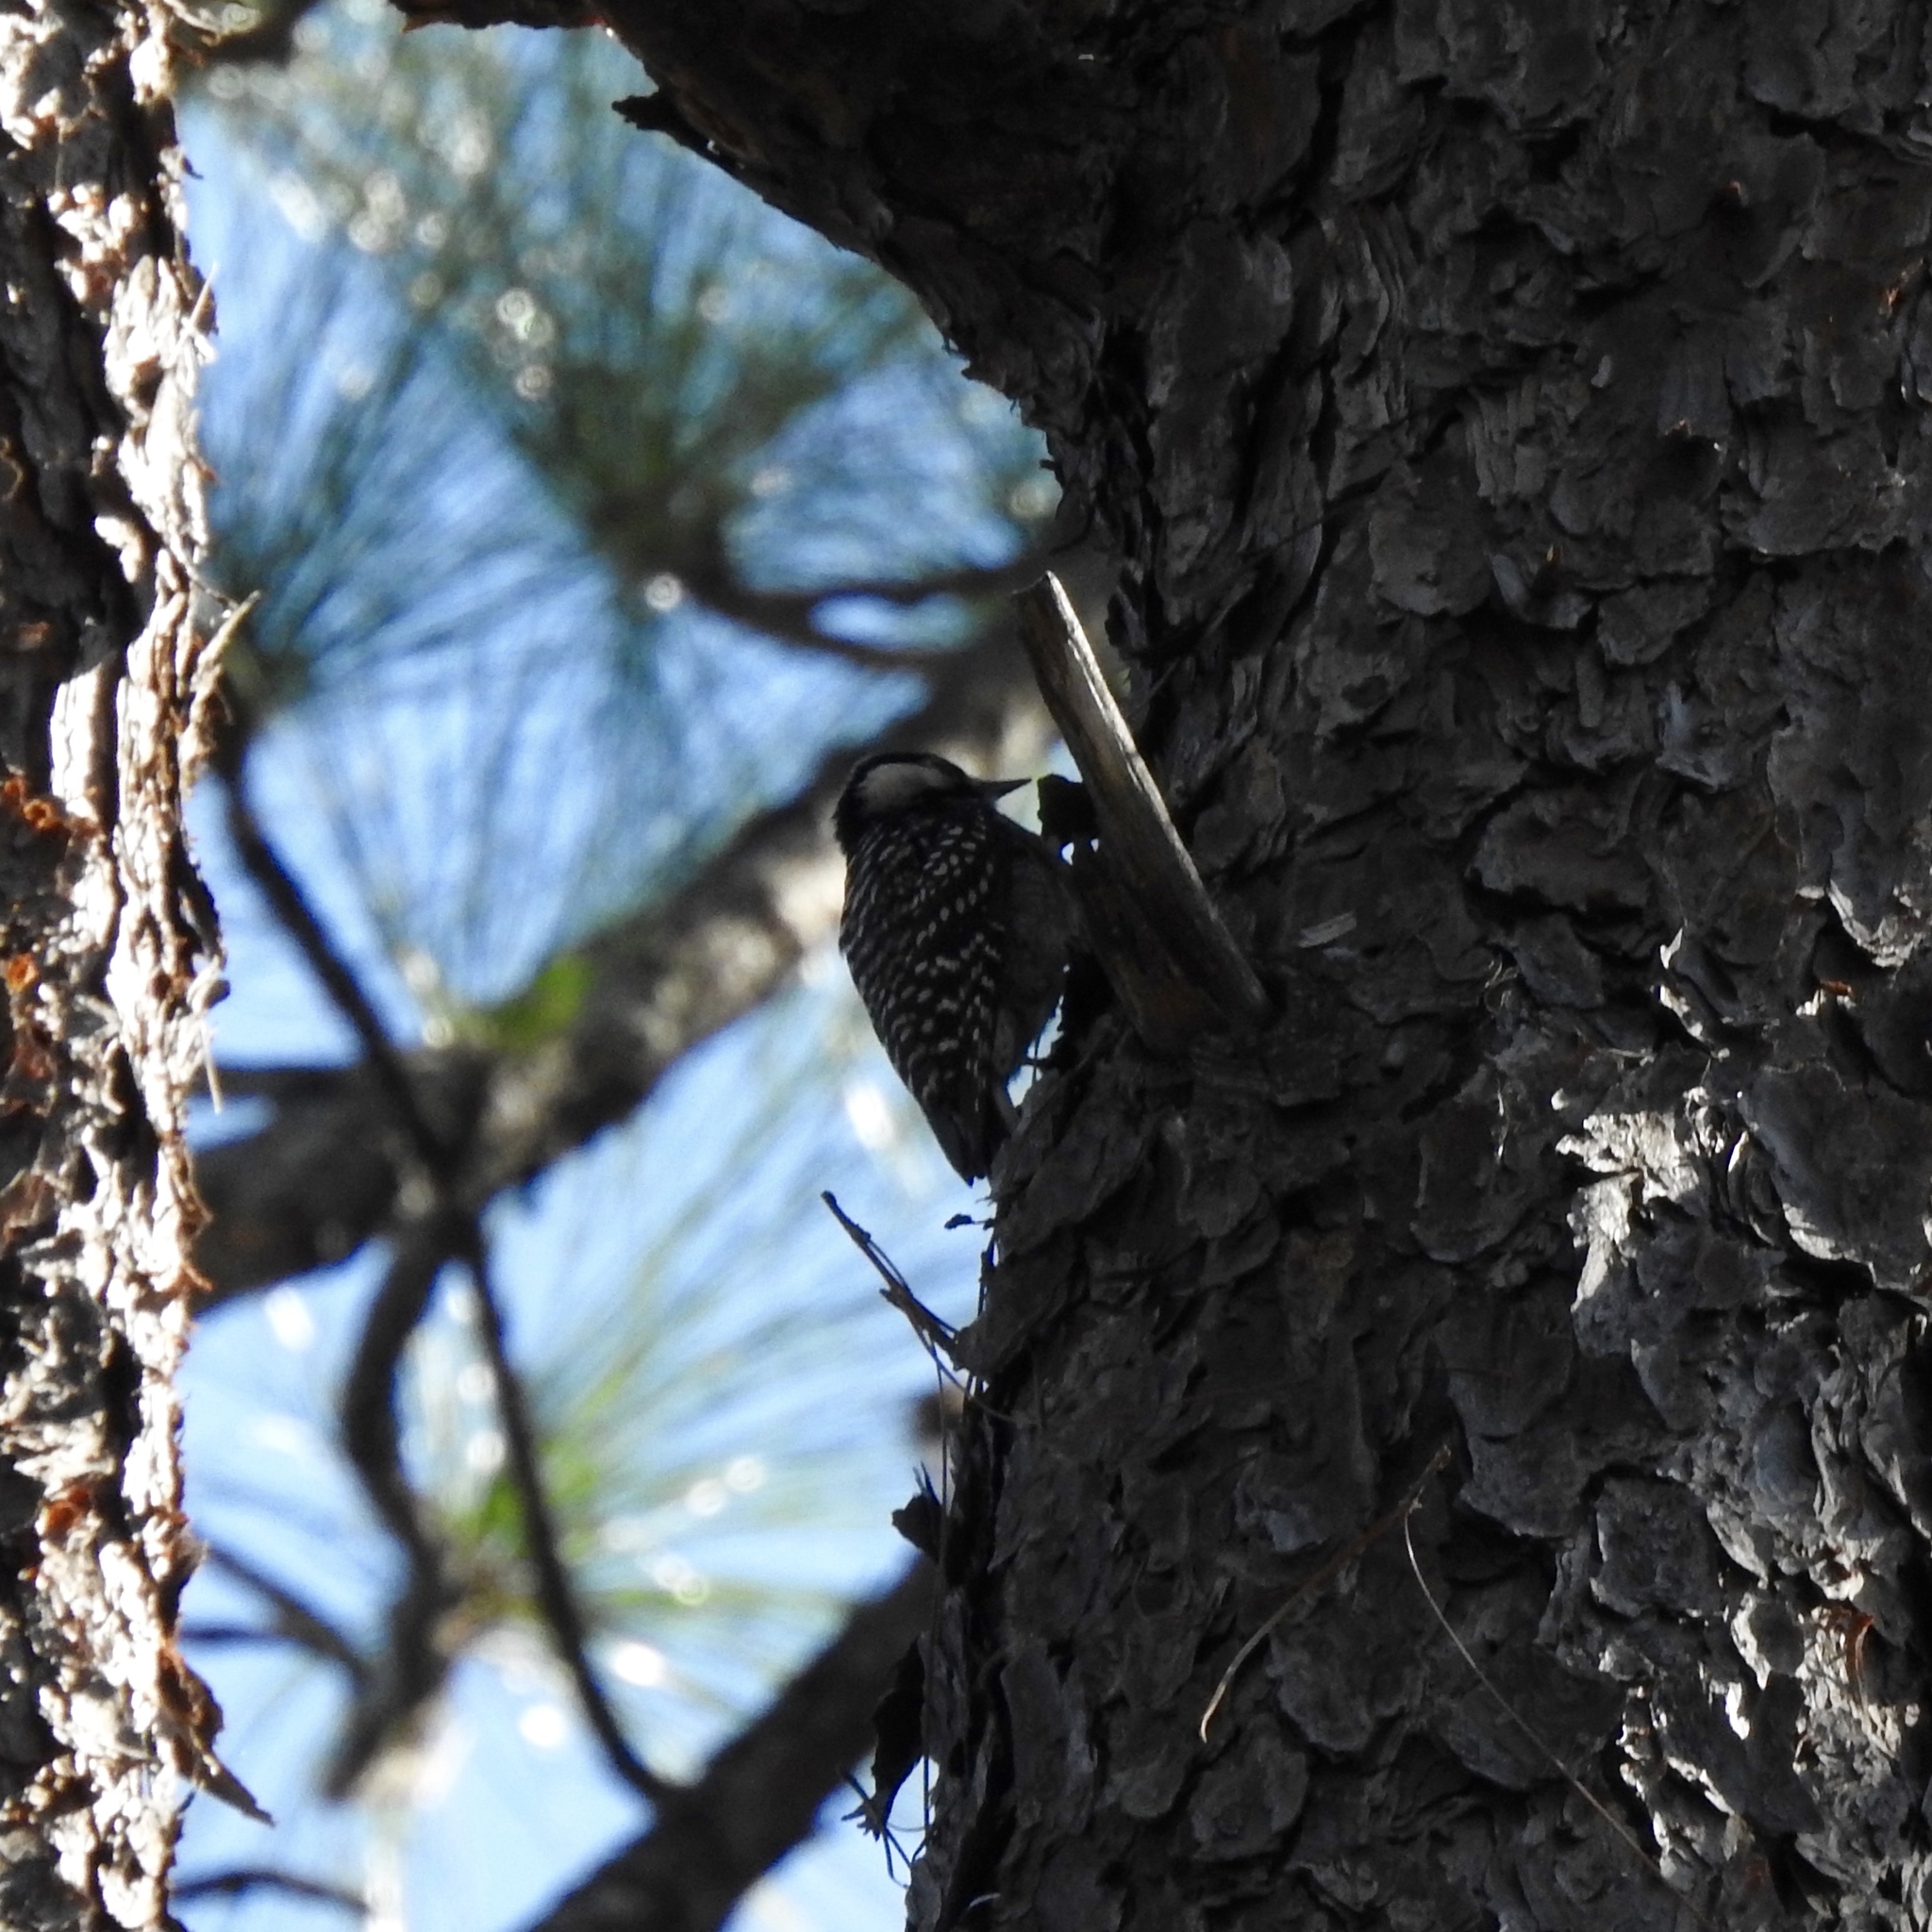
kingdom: Animalia
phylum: Chordata
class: Aves
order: Piciformes
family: Picidae
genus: Leuconotopicus
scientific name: Leuconotopicus borealis
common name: Red-cockaded woodpecker
